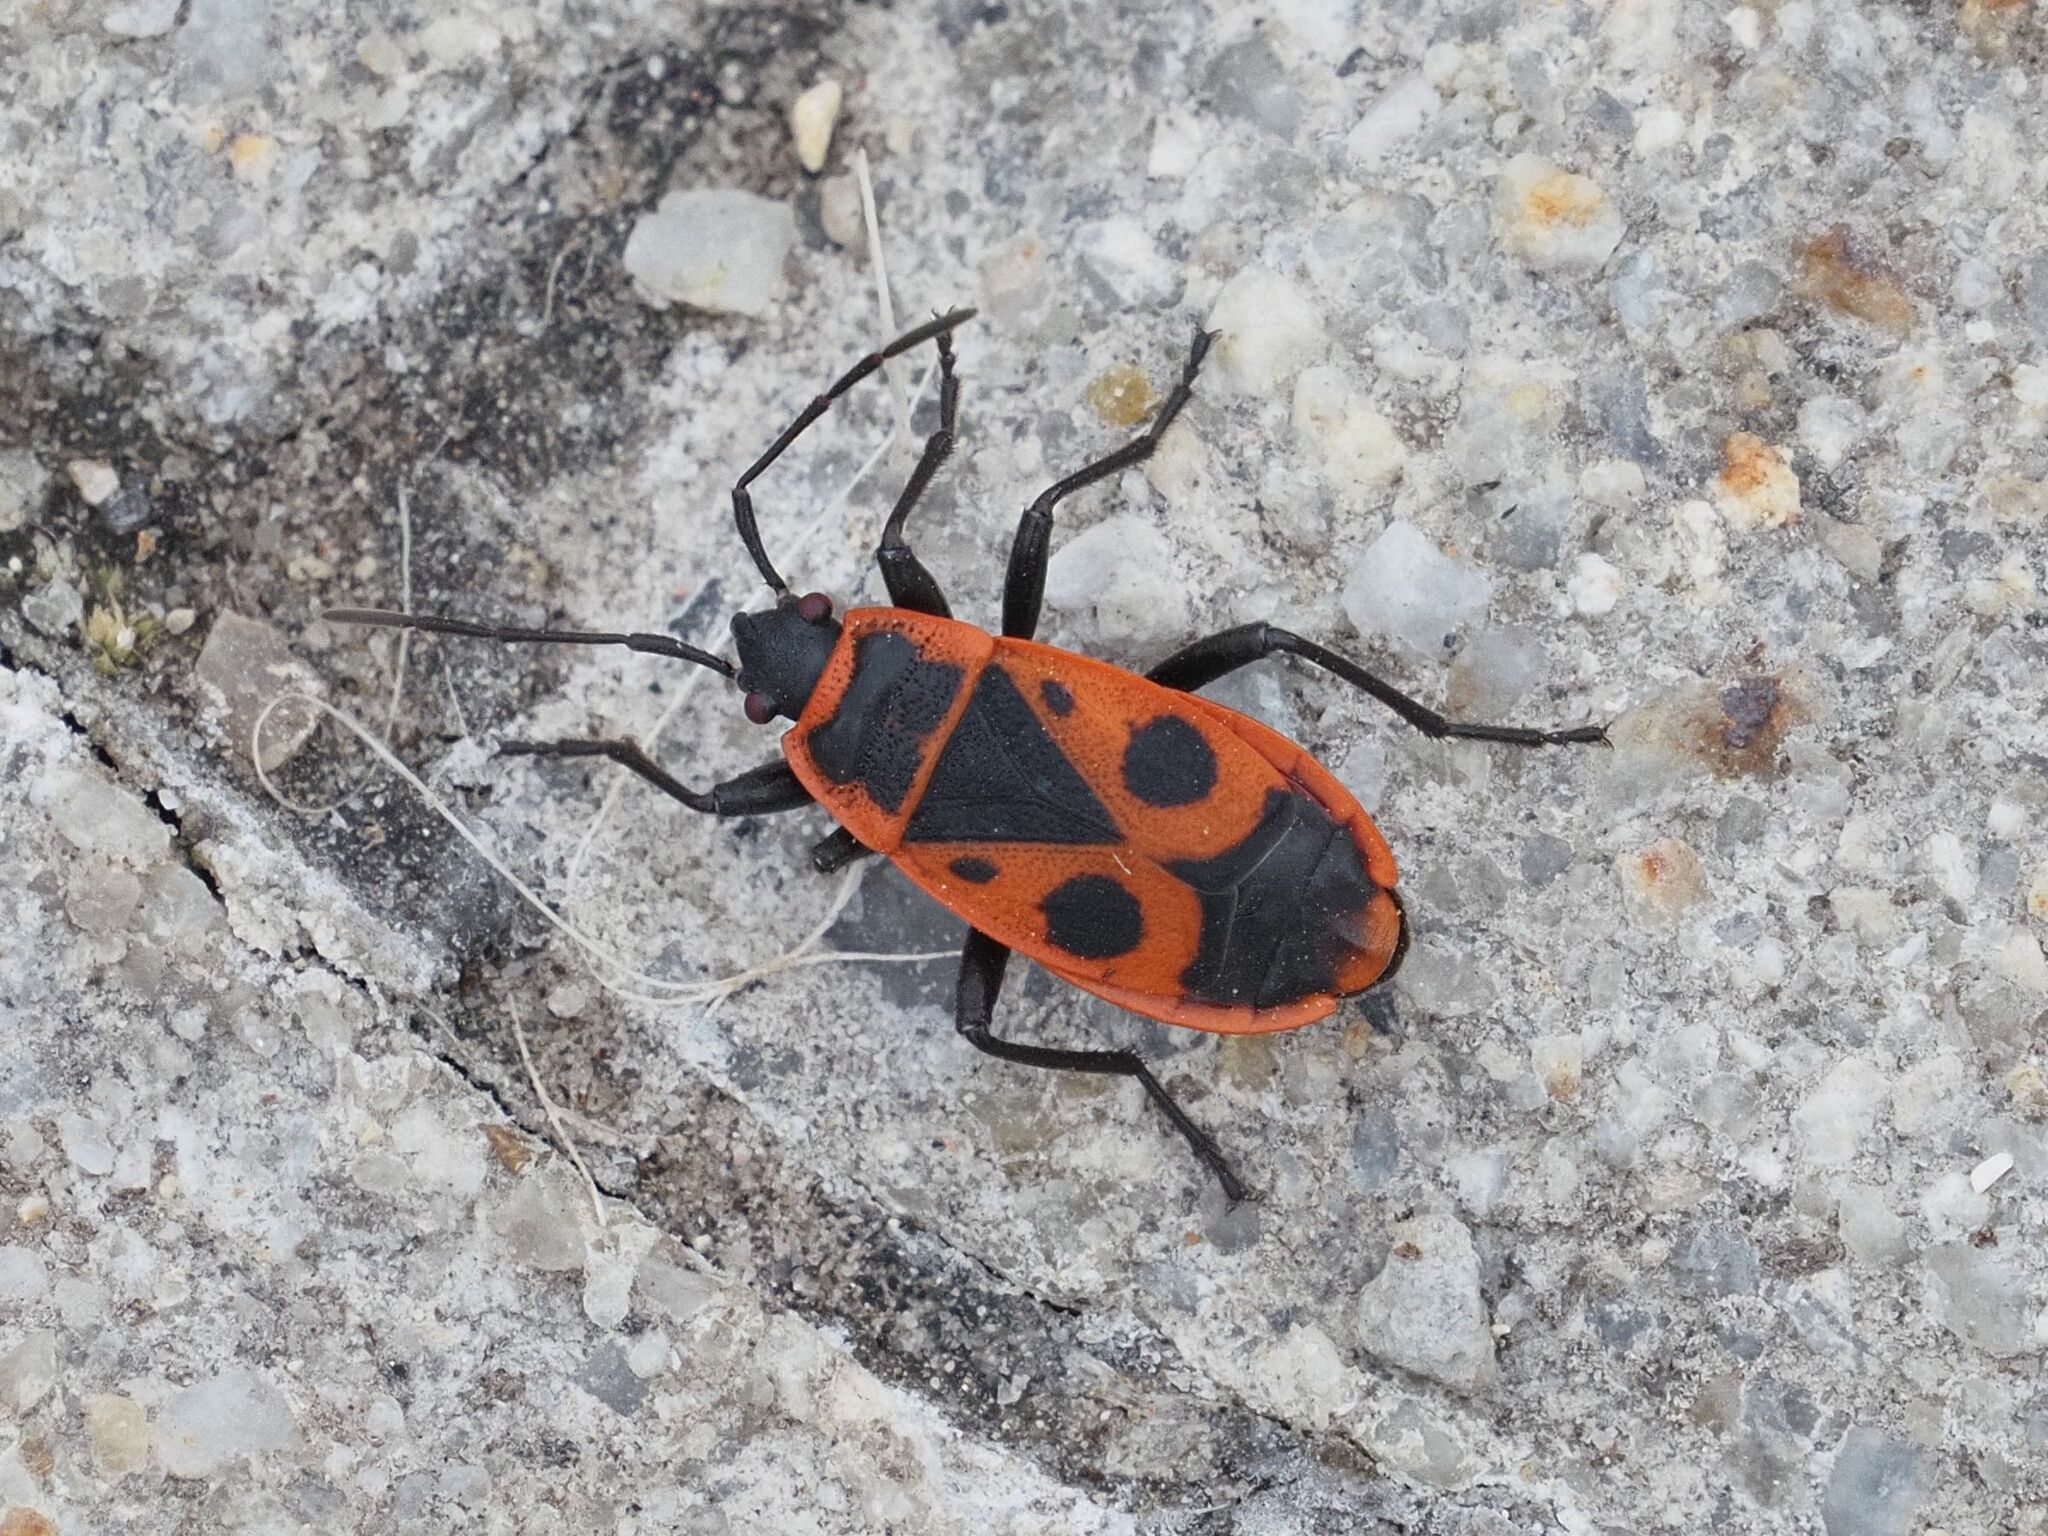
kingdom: Animalia
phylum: Arthropoda
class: Insecta
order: Hemiptera
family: Pyrrhocoridae
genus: Pyrrhocoris
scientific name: Pyrrhocoris apterus
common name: Firebug
